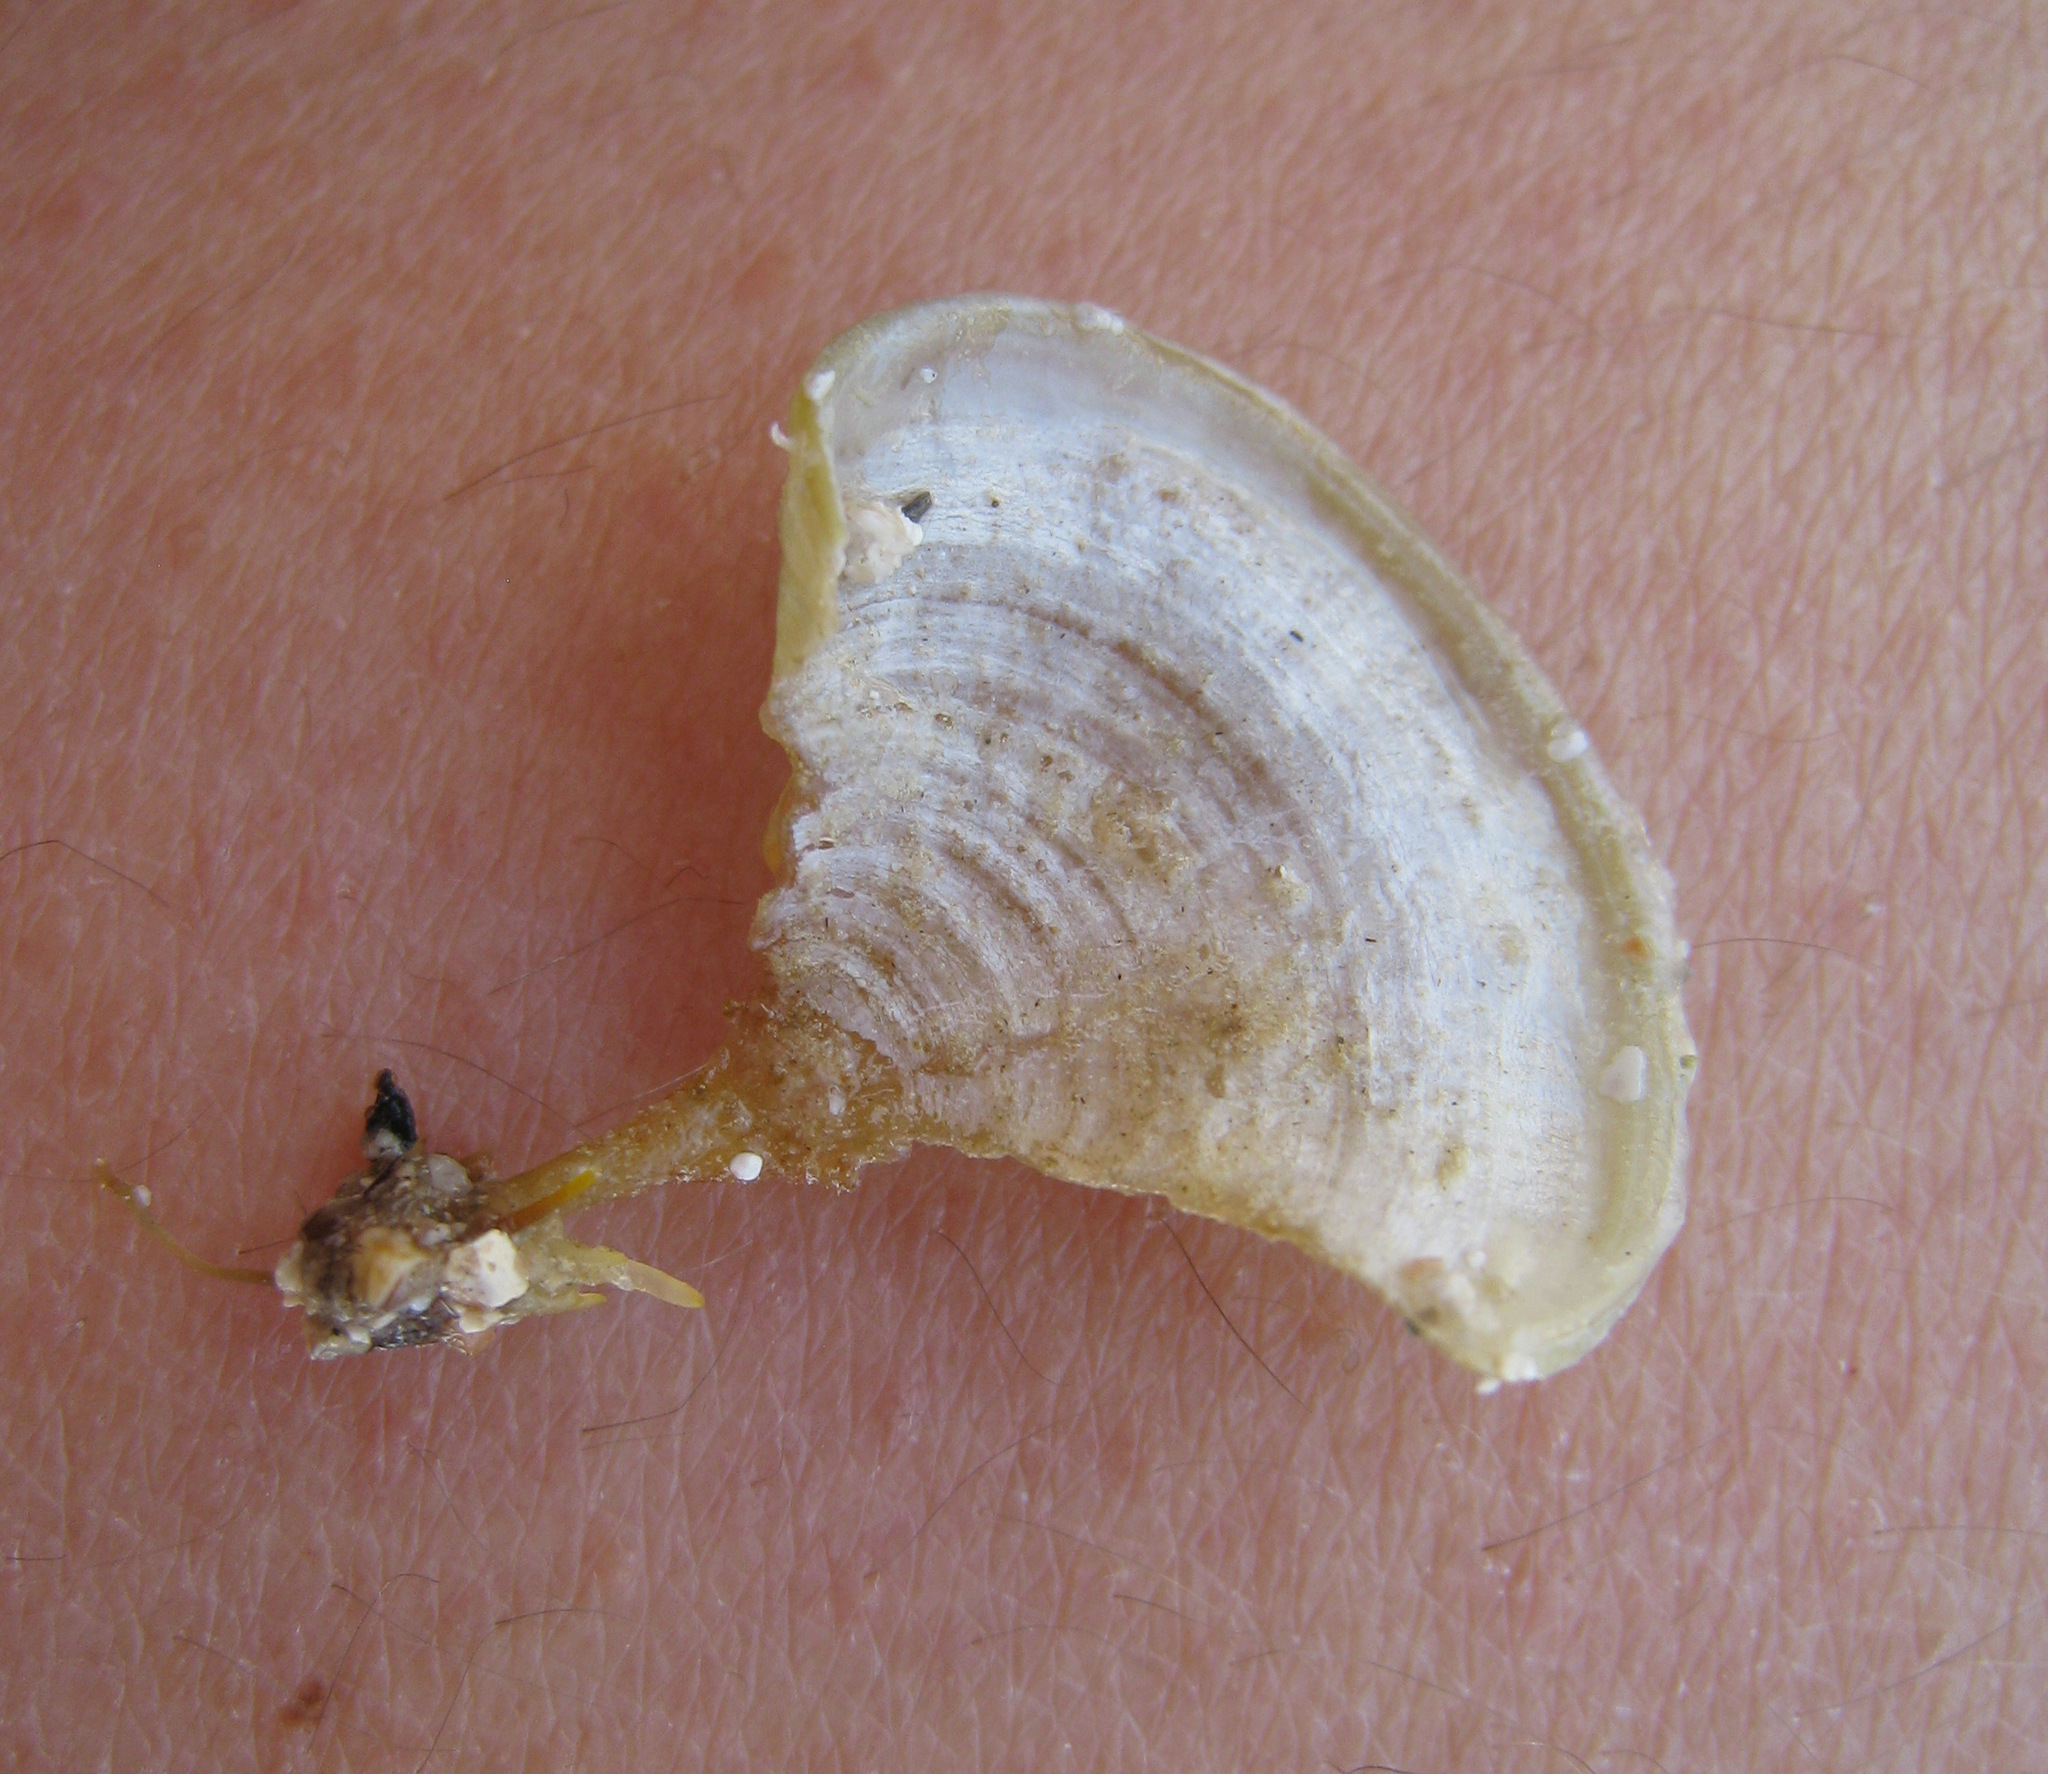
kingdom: Chromista
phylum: Ochrophyta
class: Phaeophyceae
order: Dictyotales
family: Dictyotaceae
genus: Padina
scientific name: Padina pavonica
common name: Turkey feather alga
